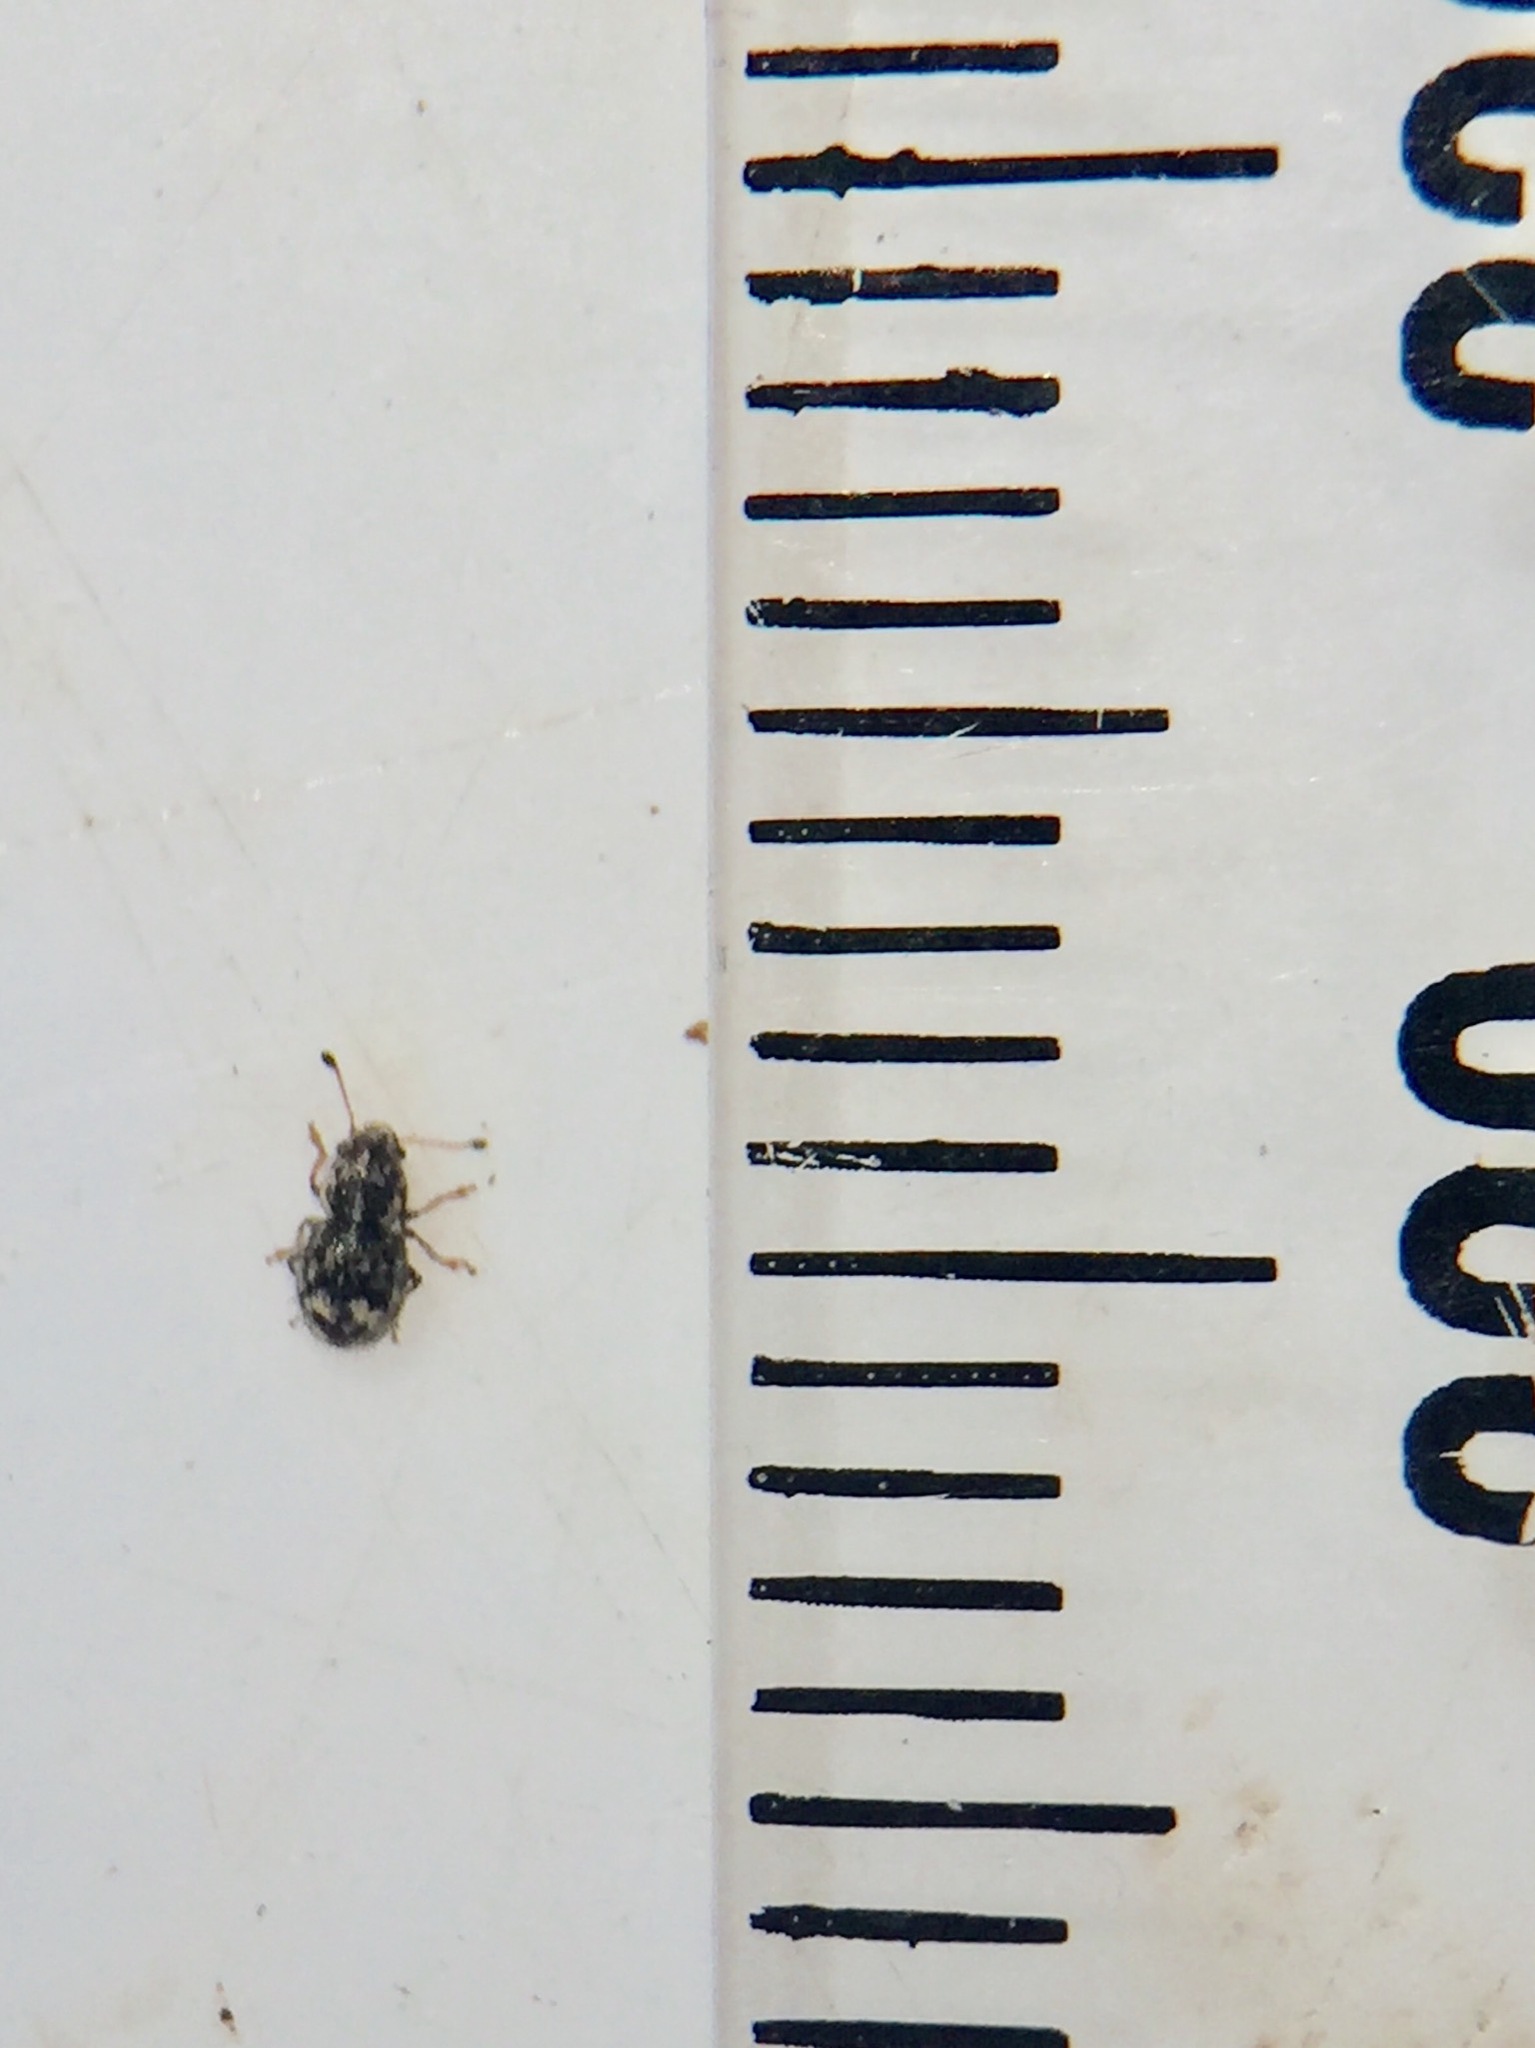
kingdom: Animalia
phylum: Arthropoda
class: Insecta
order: Coleoptera
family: Anthribidae
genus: Dasyanthribus
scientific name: Dasyanthribus purpureus
